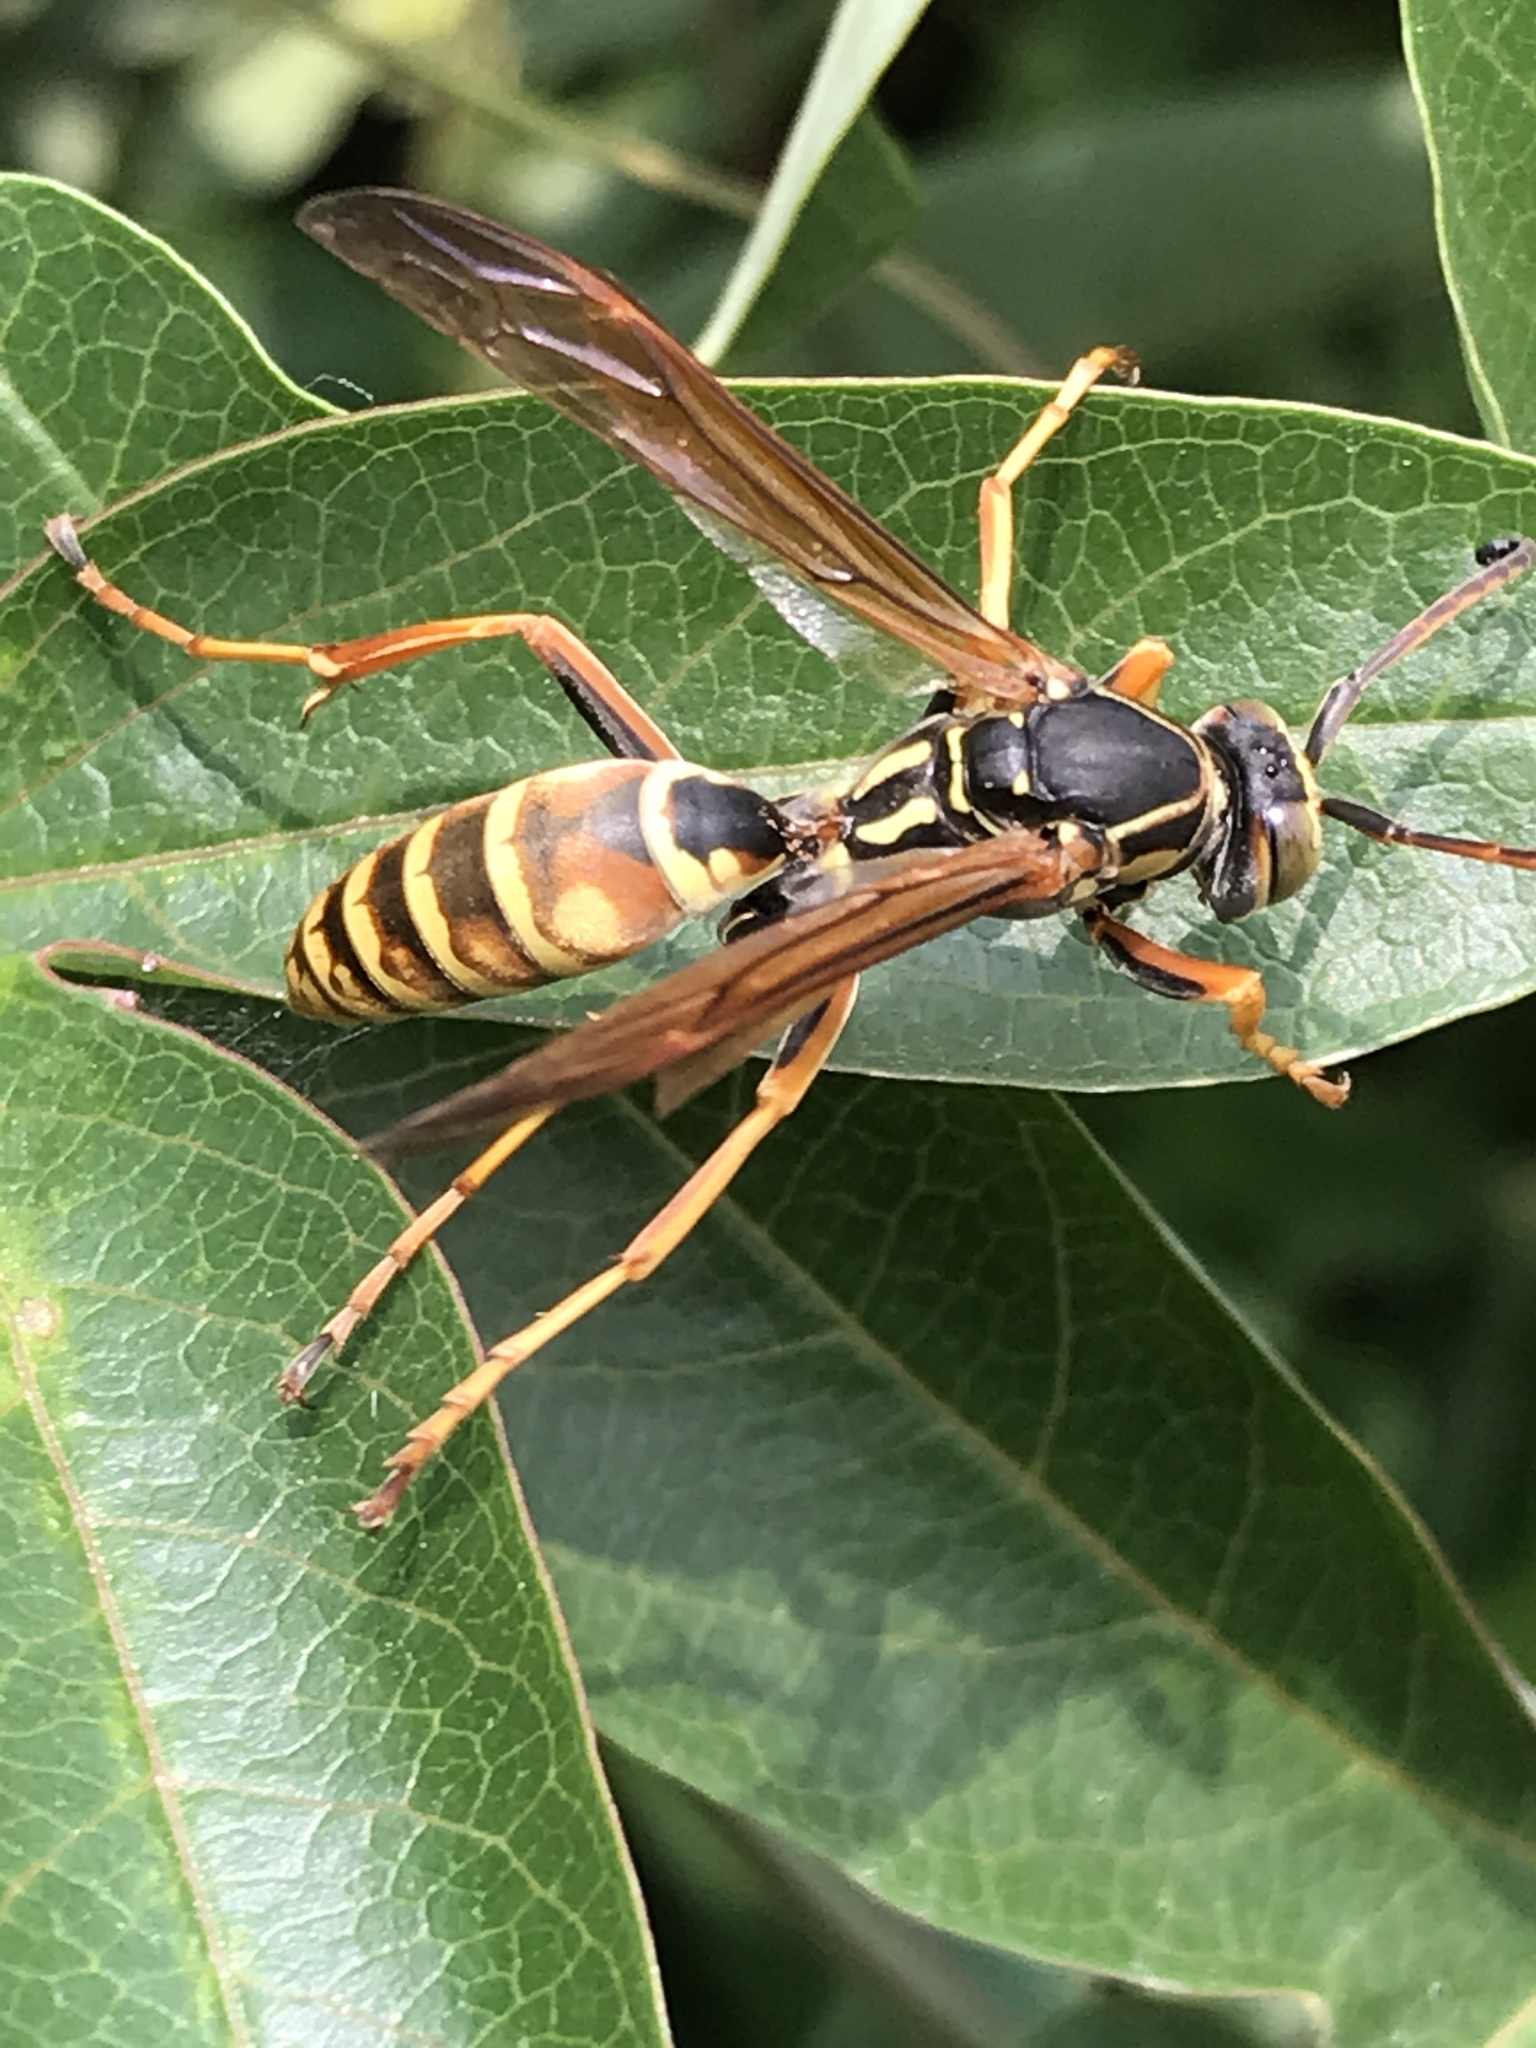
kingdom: Animalia
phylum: Arthropoda
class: Insecta
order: Hymenoptera
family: Eumenidae
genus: Polistes
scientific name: Polistes fuscatus
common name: Dark paper wasp
